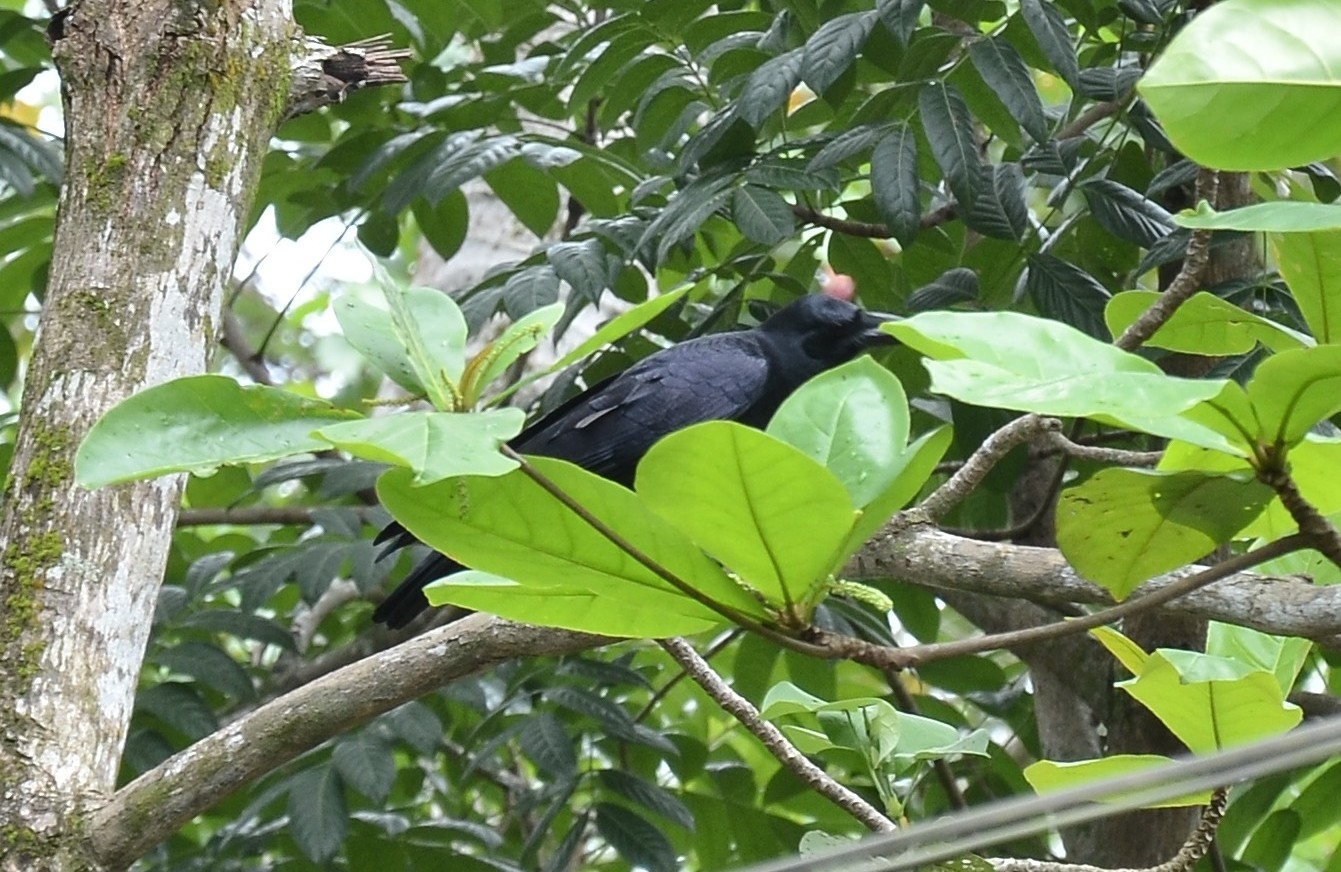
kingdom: Animalia
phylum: Chordata
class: Aves
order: Passeriformes
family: Corvidae
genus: Corvus
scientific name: Corvus macrorhynchos
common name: Large-billed crow
